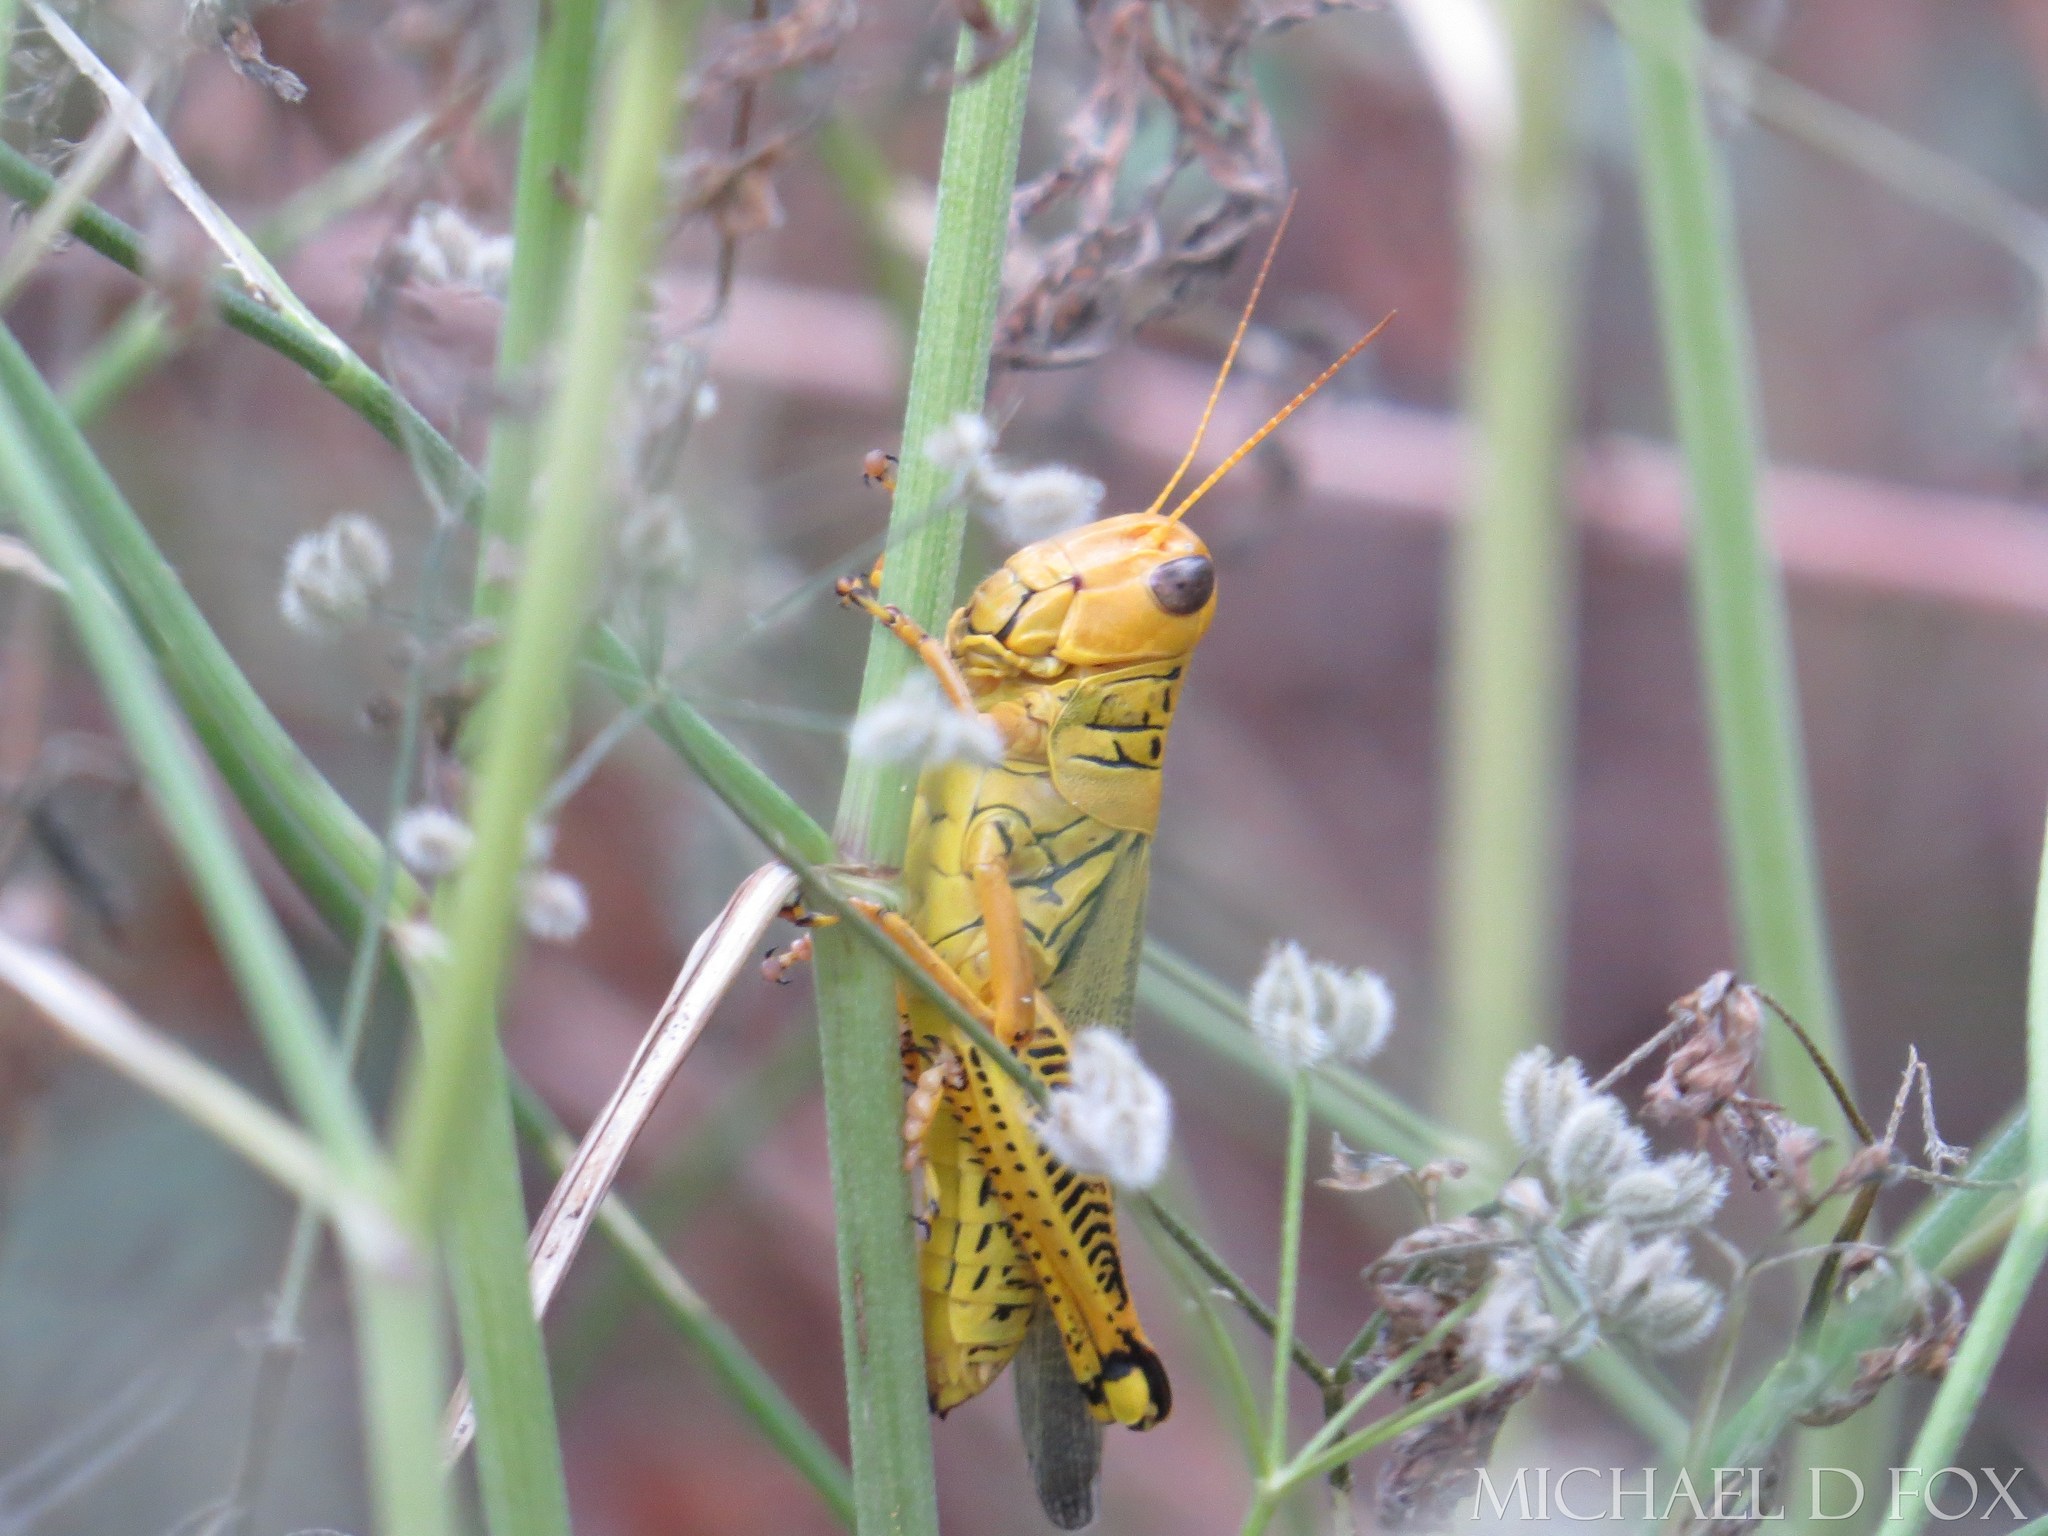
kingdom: Animalia
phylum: Arthropoda
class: Insecta
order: Orthoptera
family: Acrididae
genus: Melanoplus
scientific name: Melanoplus differentialis
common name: Differential grasshopper
